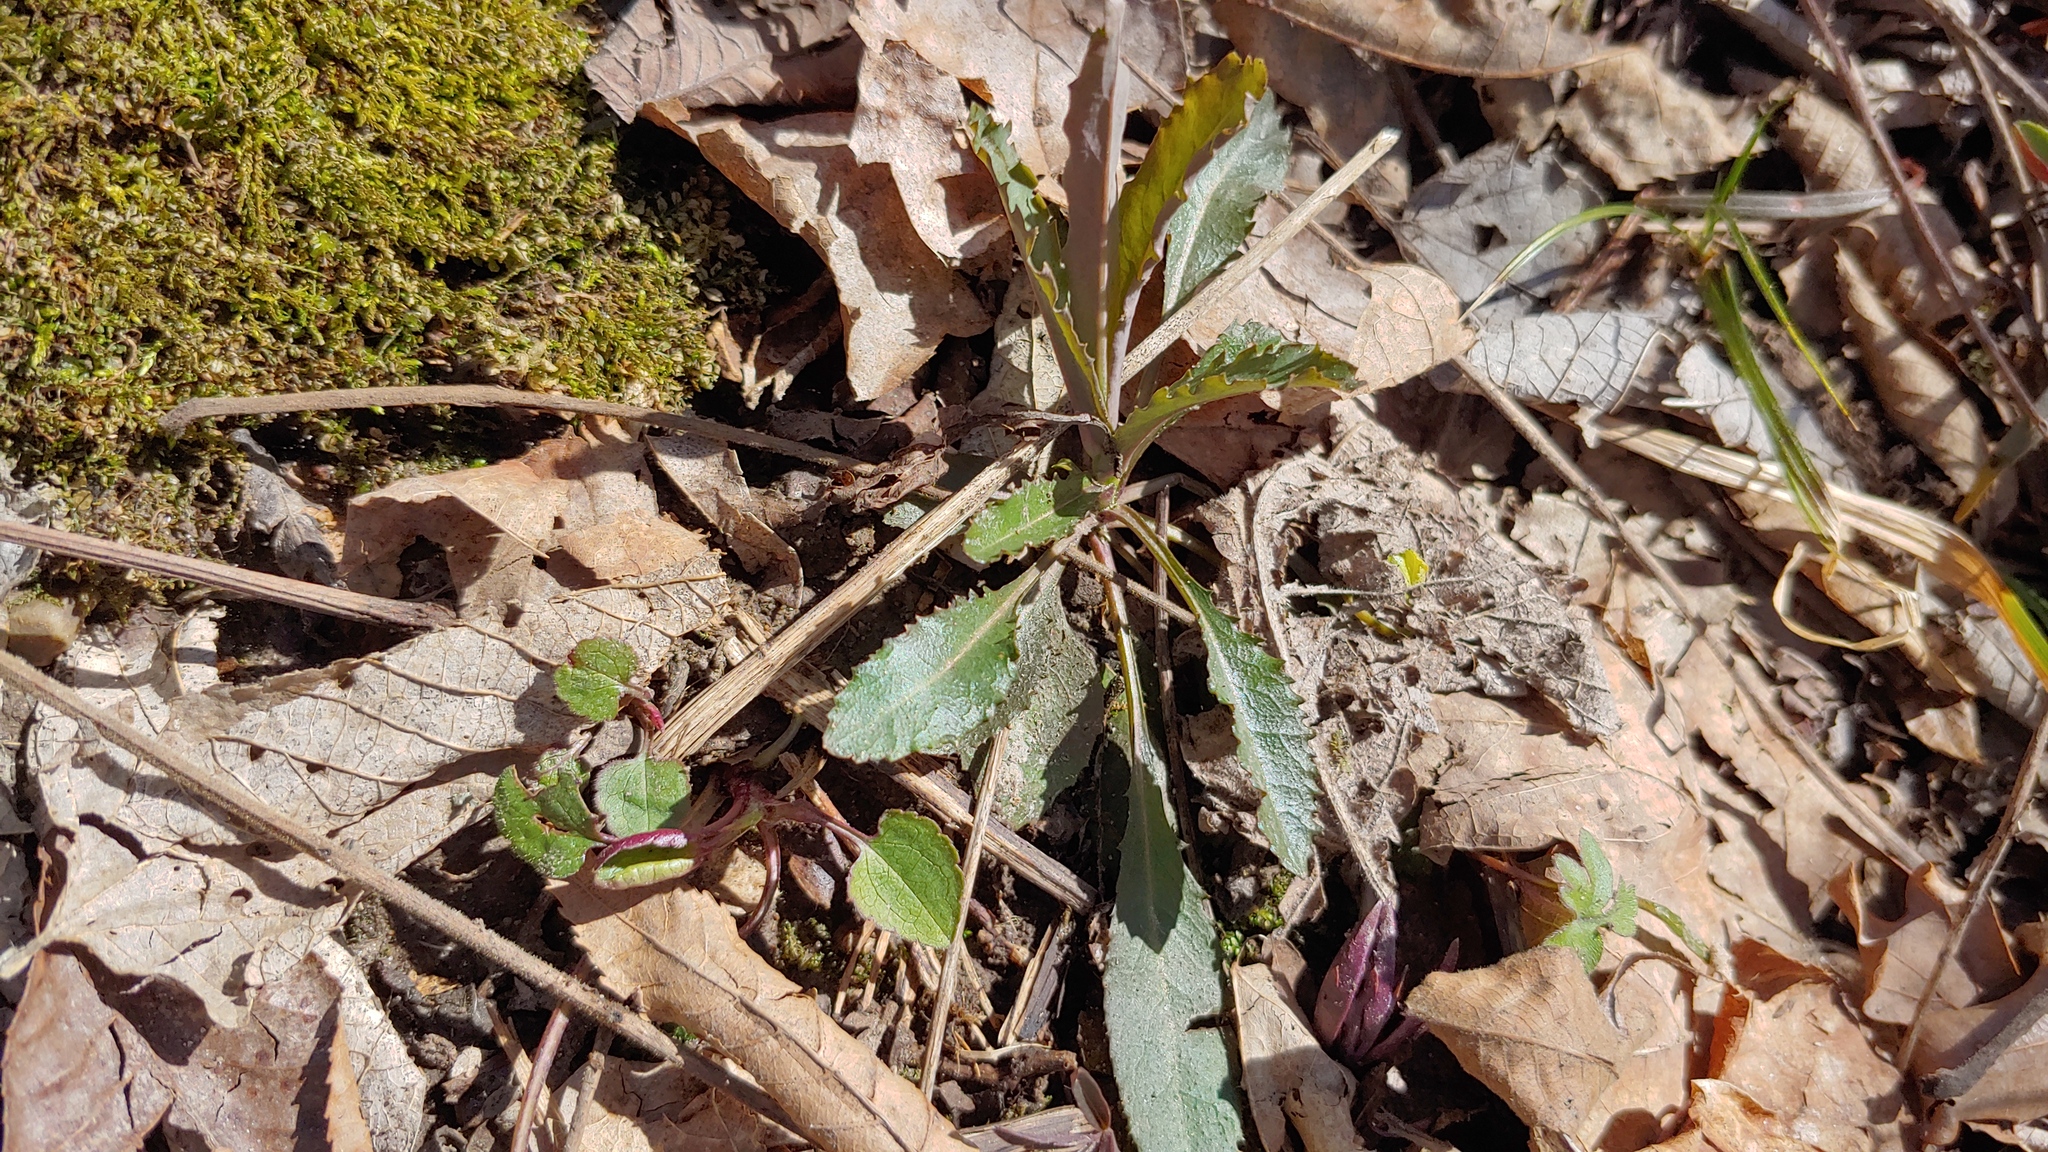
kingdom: Plantae
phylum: Tracheophyta
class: Magnoliopsida
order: Brassicales
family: Brassicaceae
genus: Borodinia
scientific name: Borodinia laevigata
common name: Smooth rockcress
